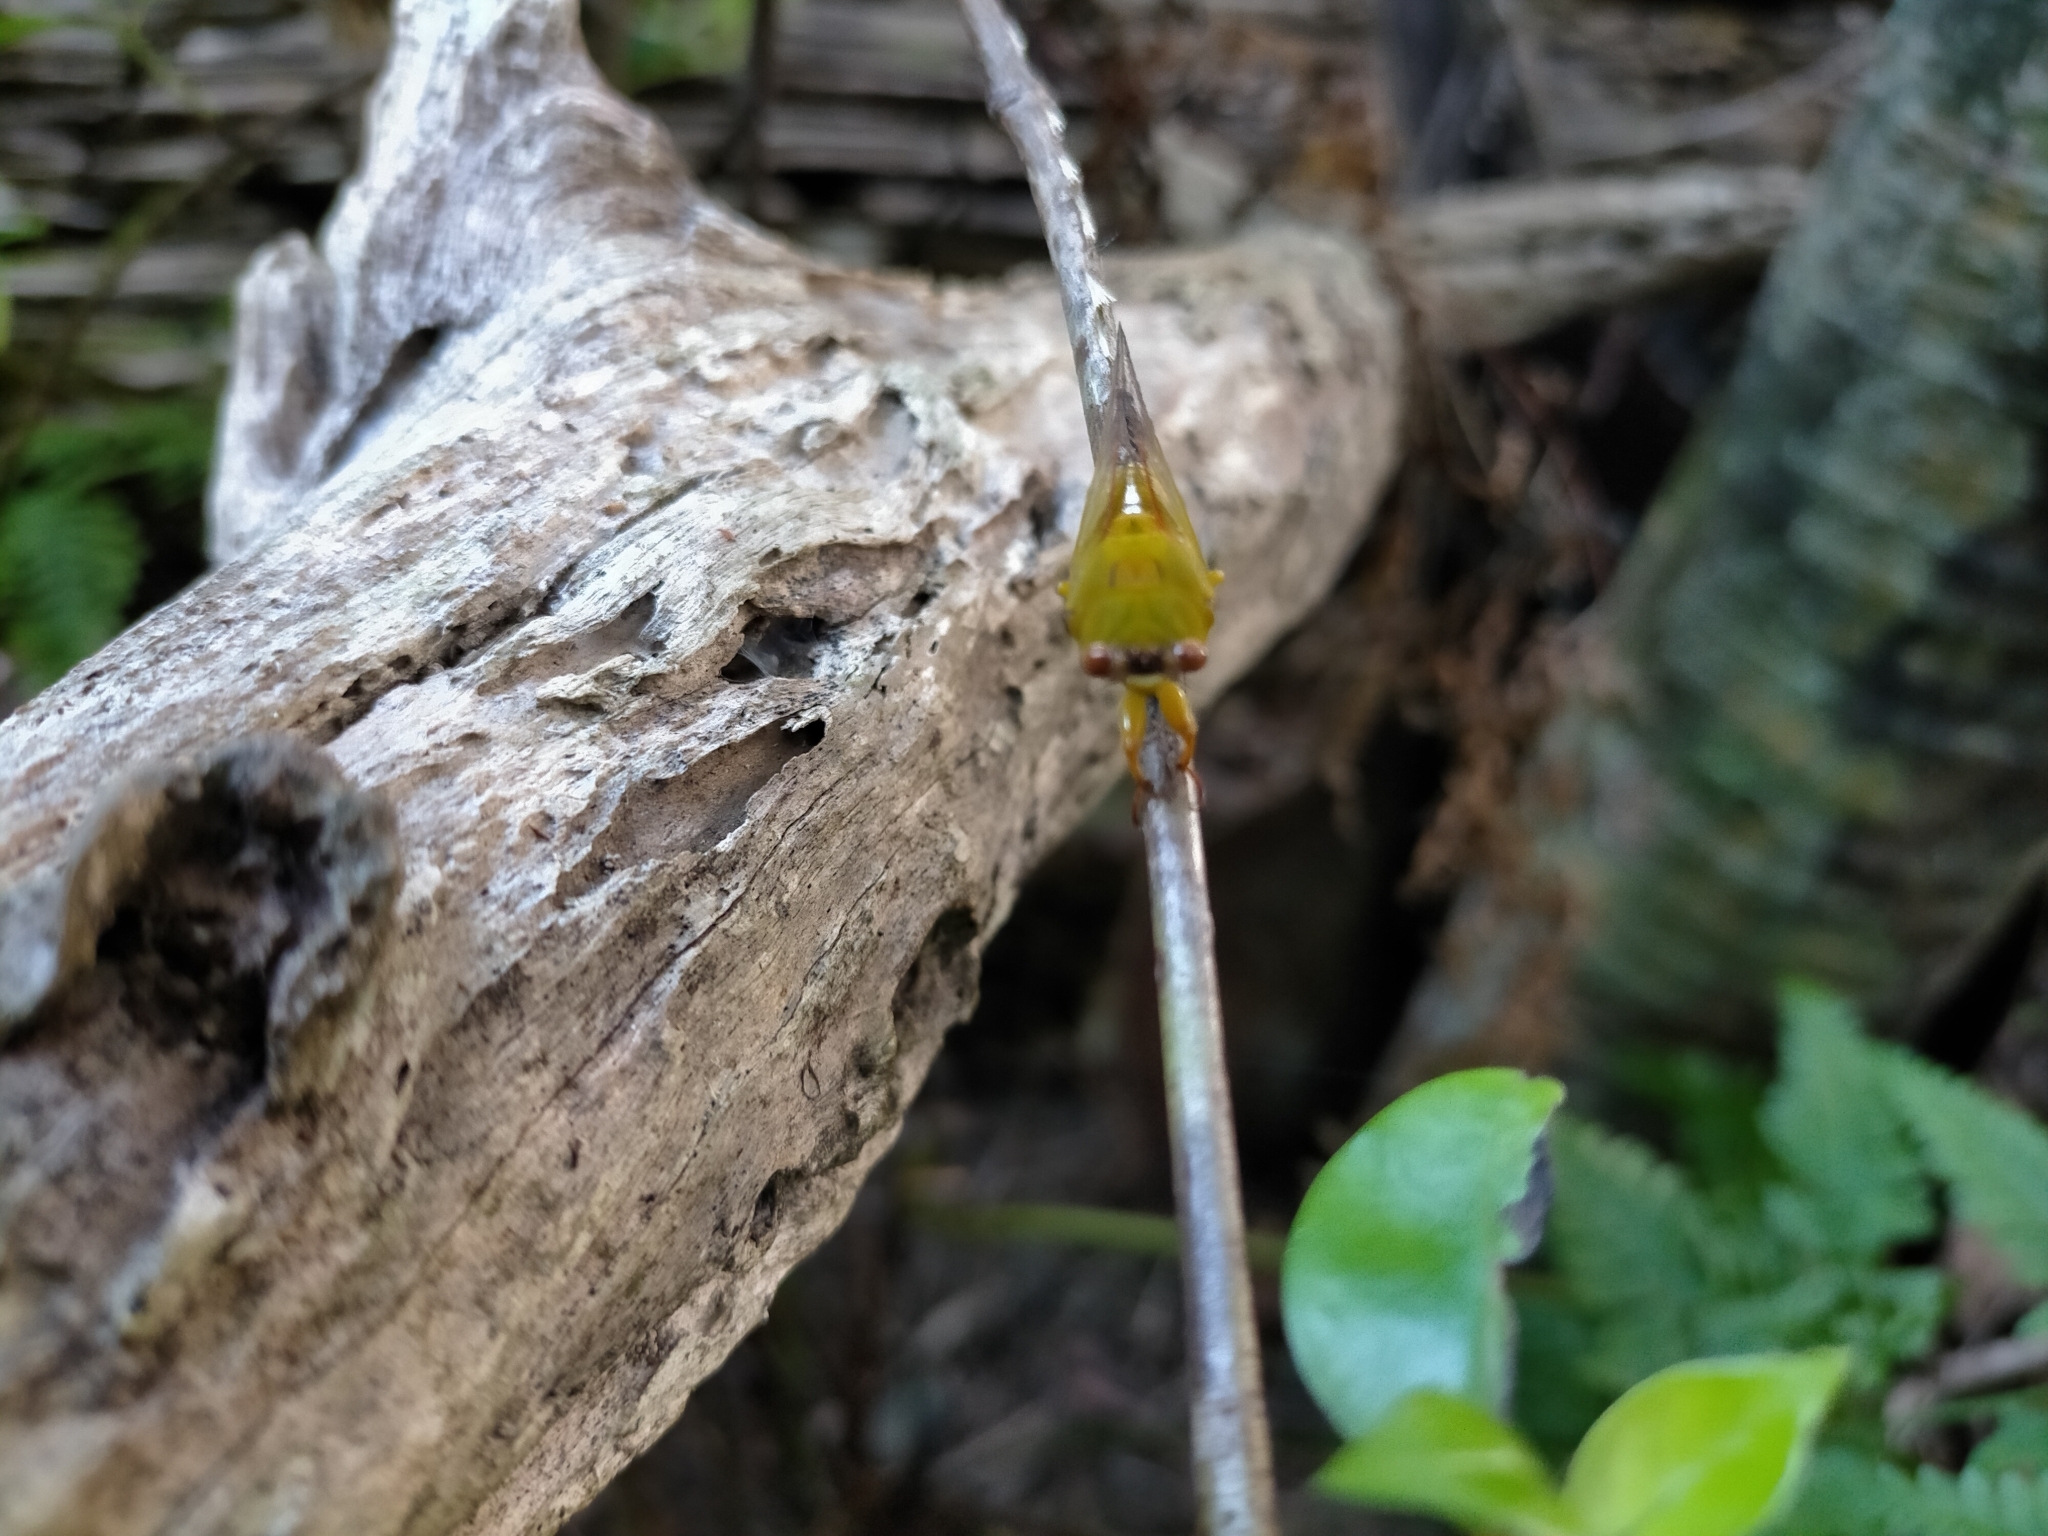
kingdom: Animalia
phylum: Arthropoda
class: Insecta
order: Hemiptera
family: Cicadidae
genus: Kikihia
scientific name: Kikihia dugdalei
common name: Dugdale's cicada
